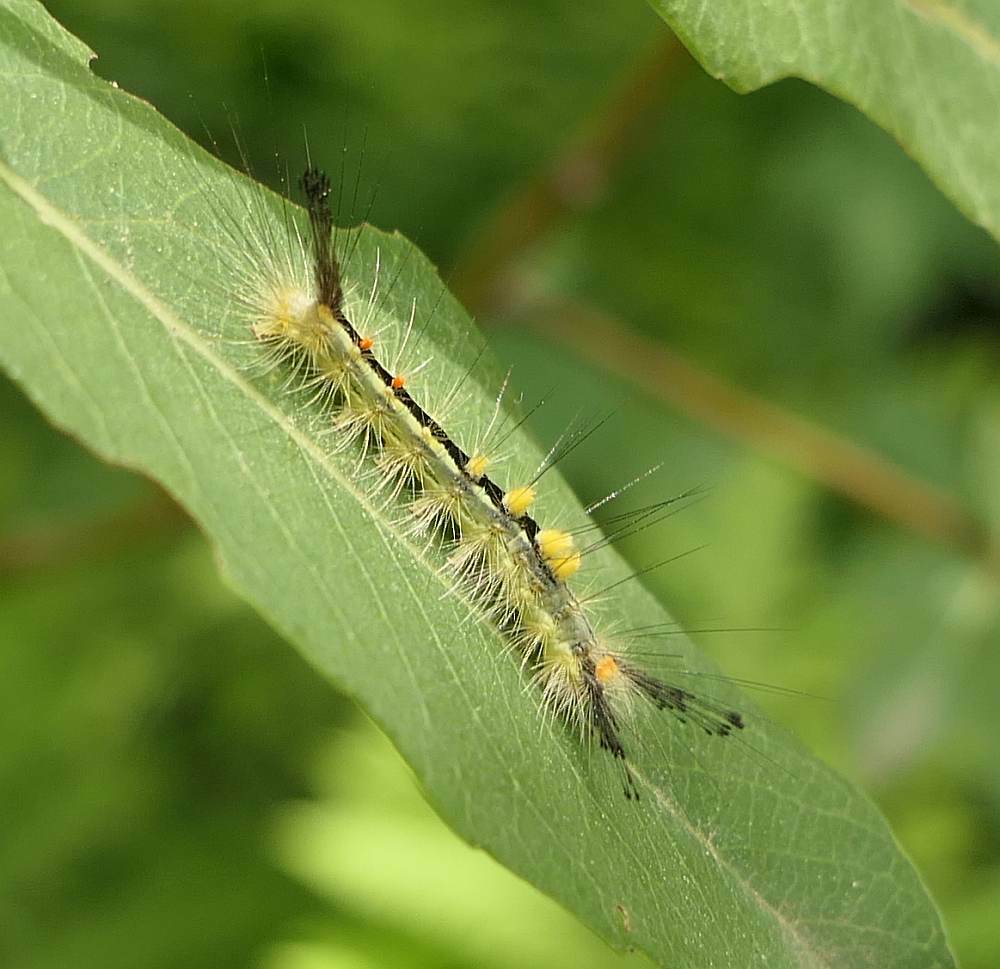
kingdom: Animalia
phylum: Arthropoda
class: Insecta
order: Lepidoptera
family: Erebidae
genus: Orgyia
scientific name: Orgyia leucostigma
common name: White-marked tussock moth
